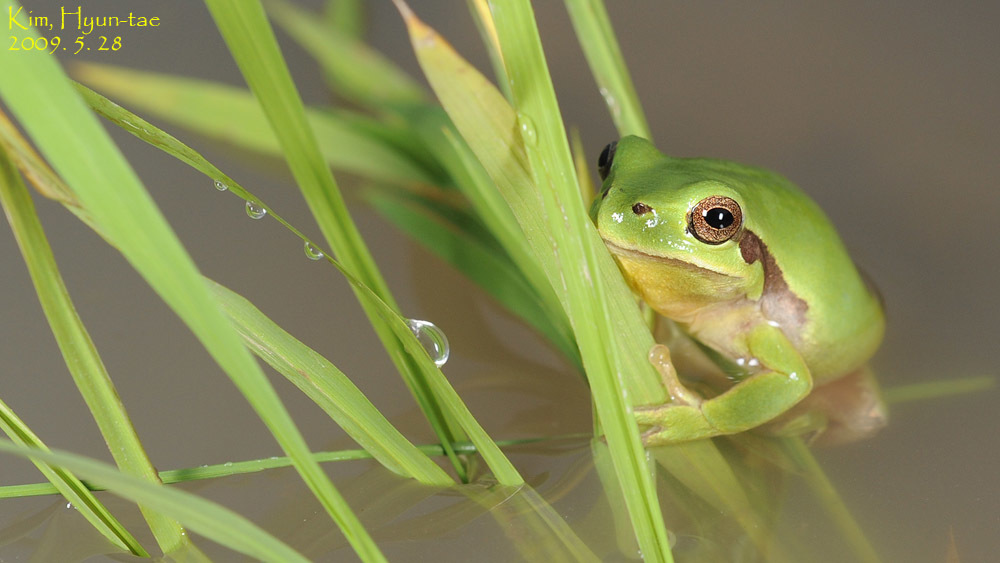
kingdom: Animalia
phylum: Chordata
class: Amphibia
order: Anura
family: Hylidae
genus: Dryophytes
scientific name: Dryophytes immaculatus
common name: North china treefrog
